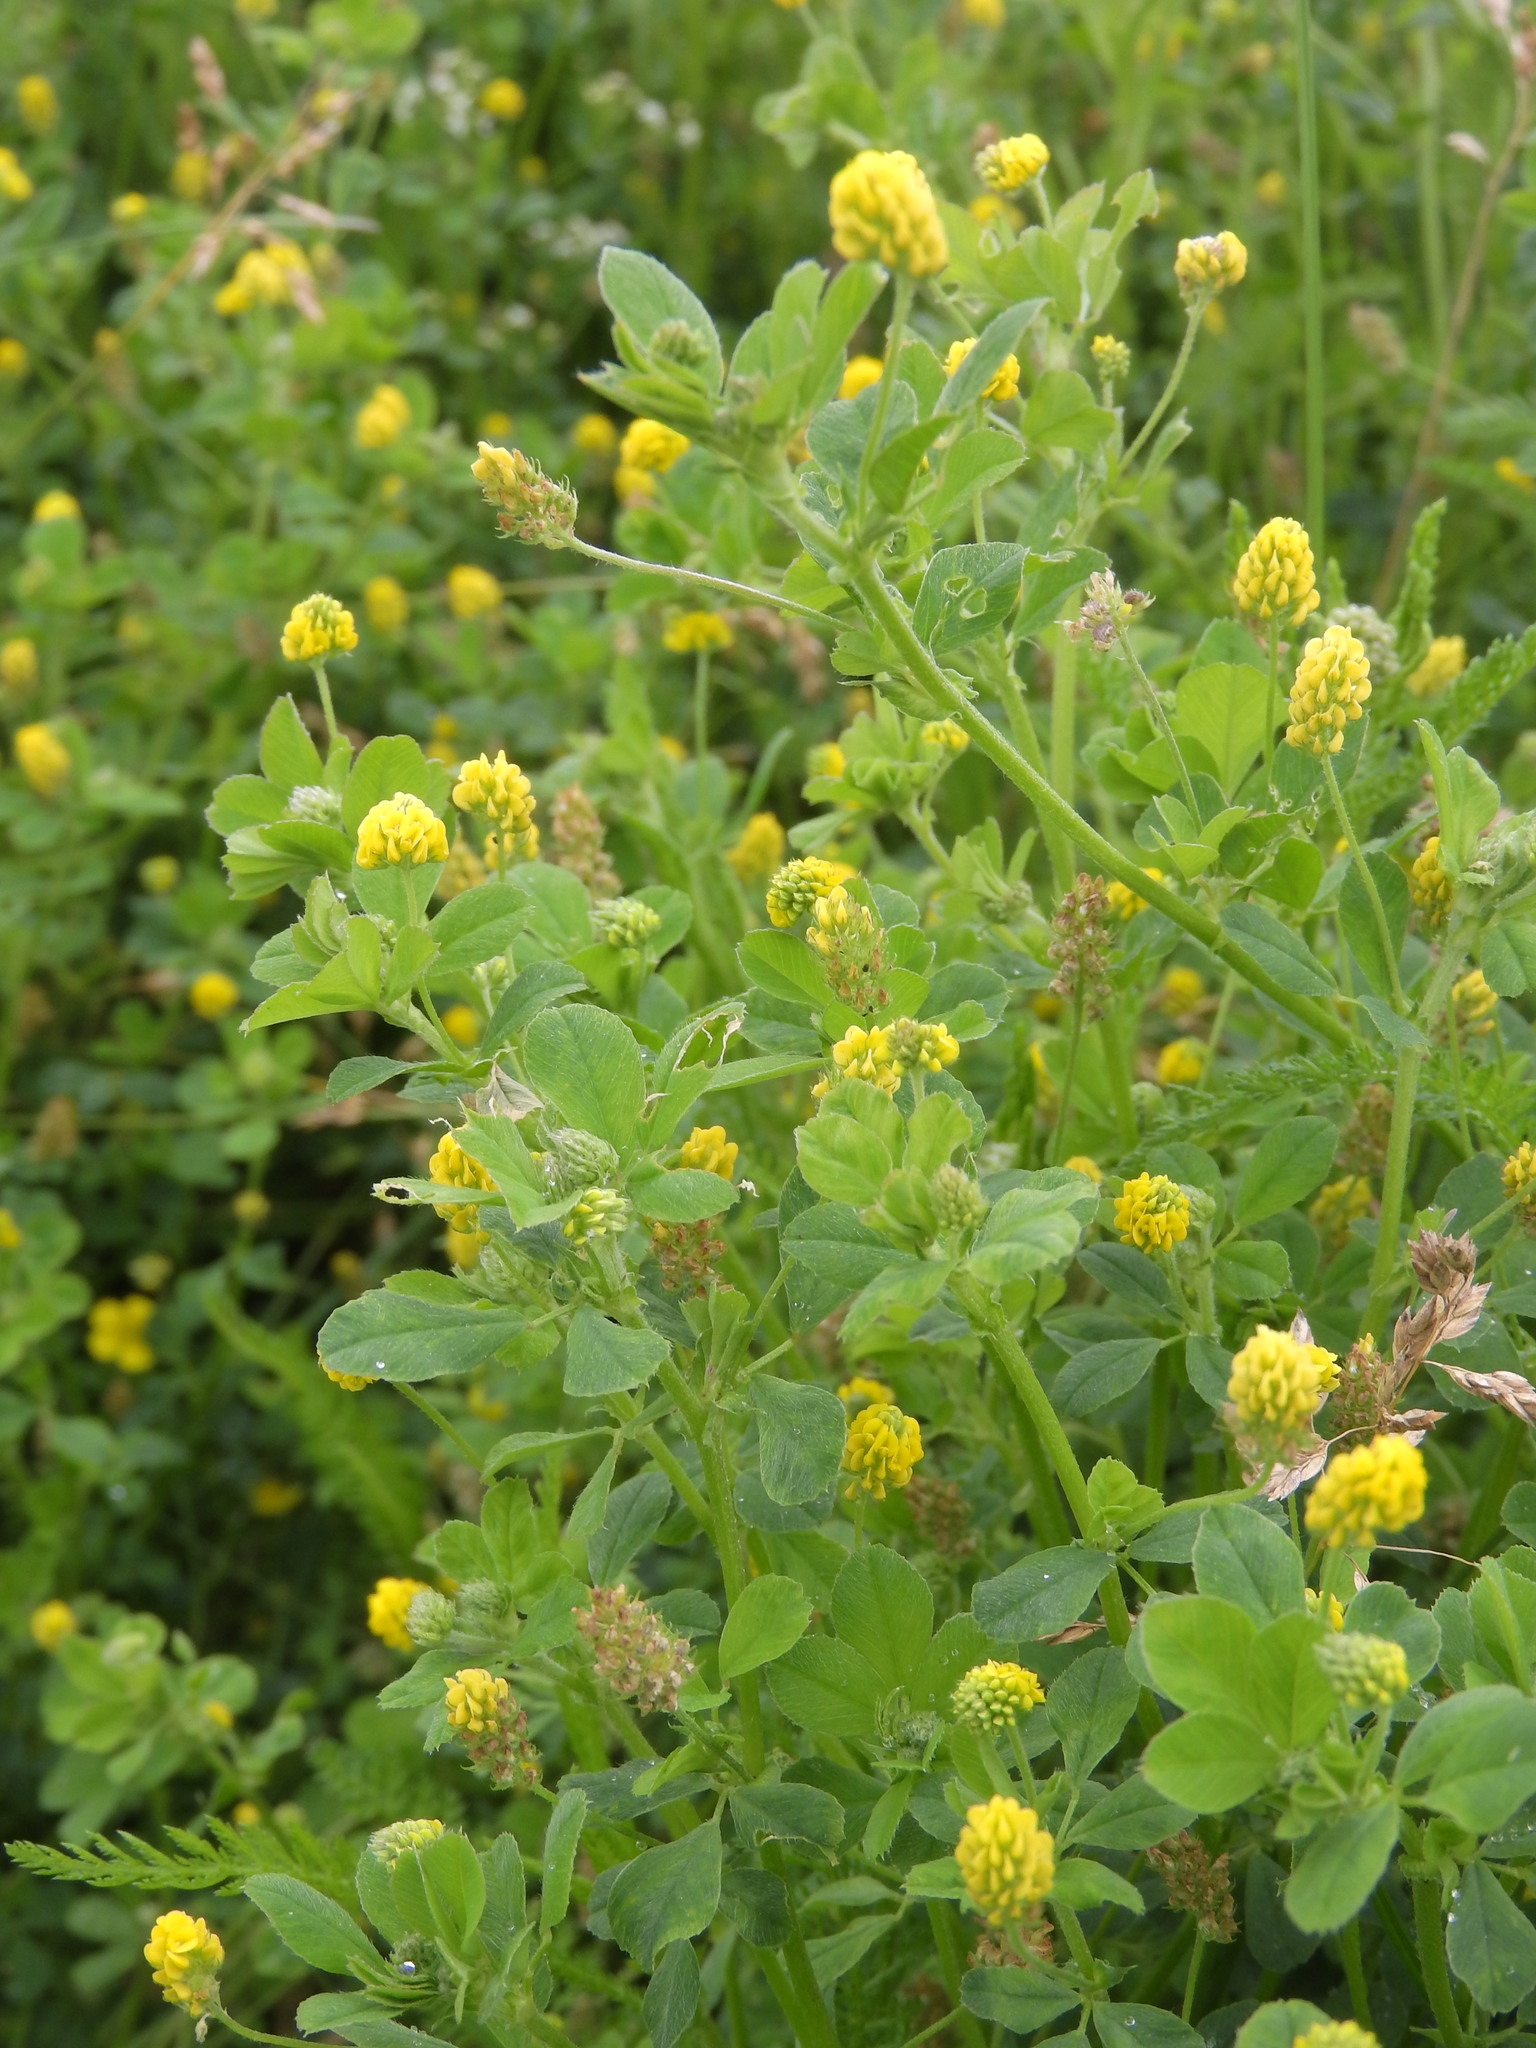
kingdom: Plantae
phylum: Tracheophyta
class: Magnoliopsida
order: Fabales
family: Fabaceae
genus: Medicago
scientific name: Medicago lupulina
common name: Black medick
